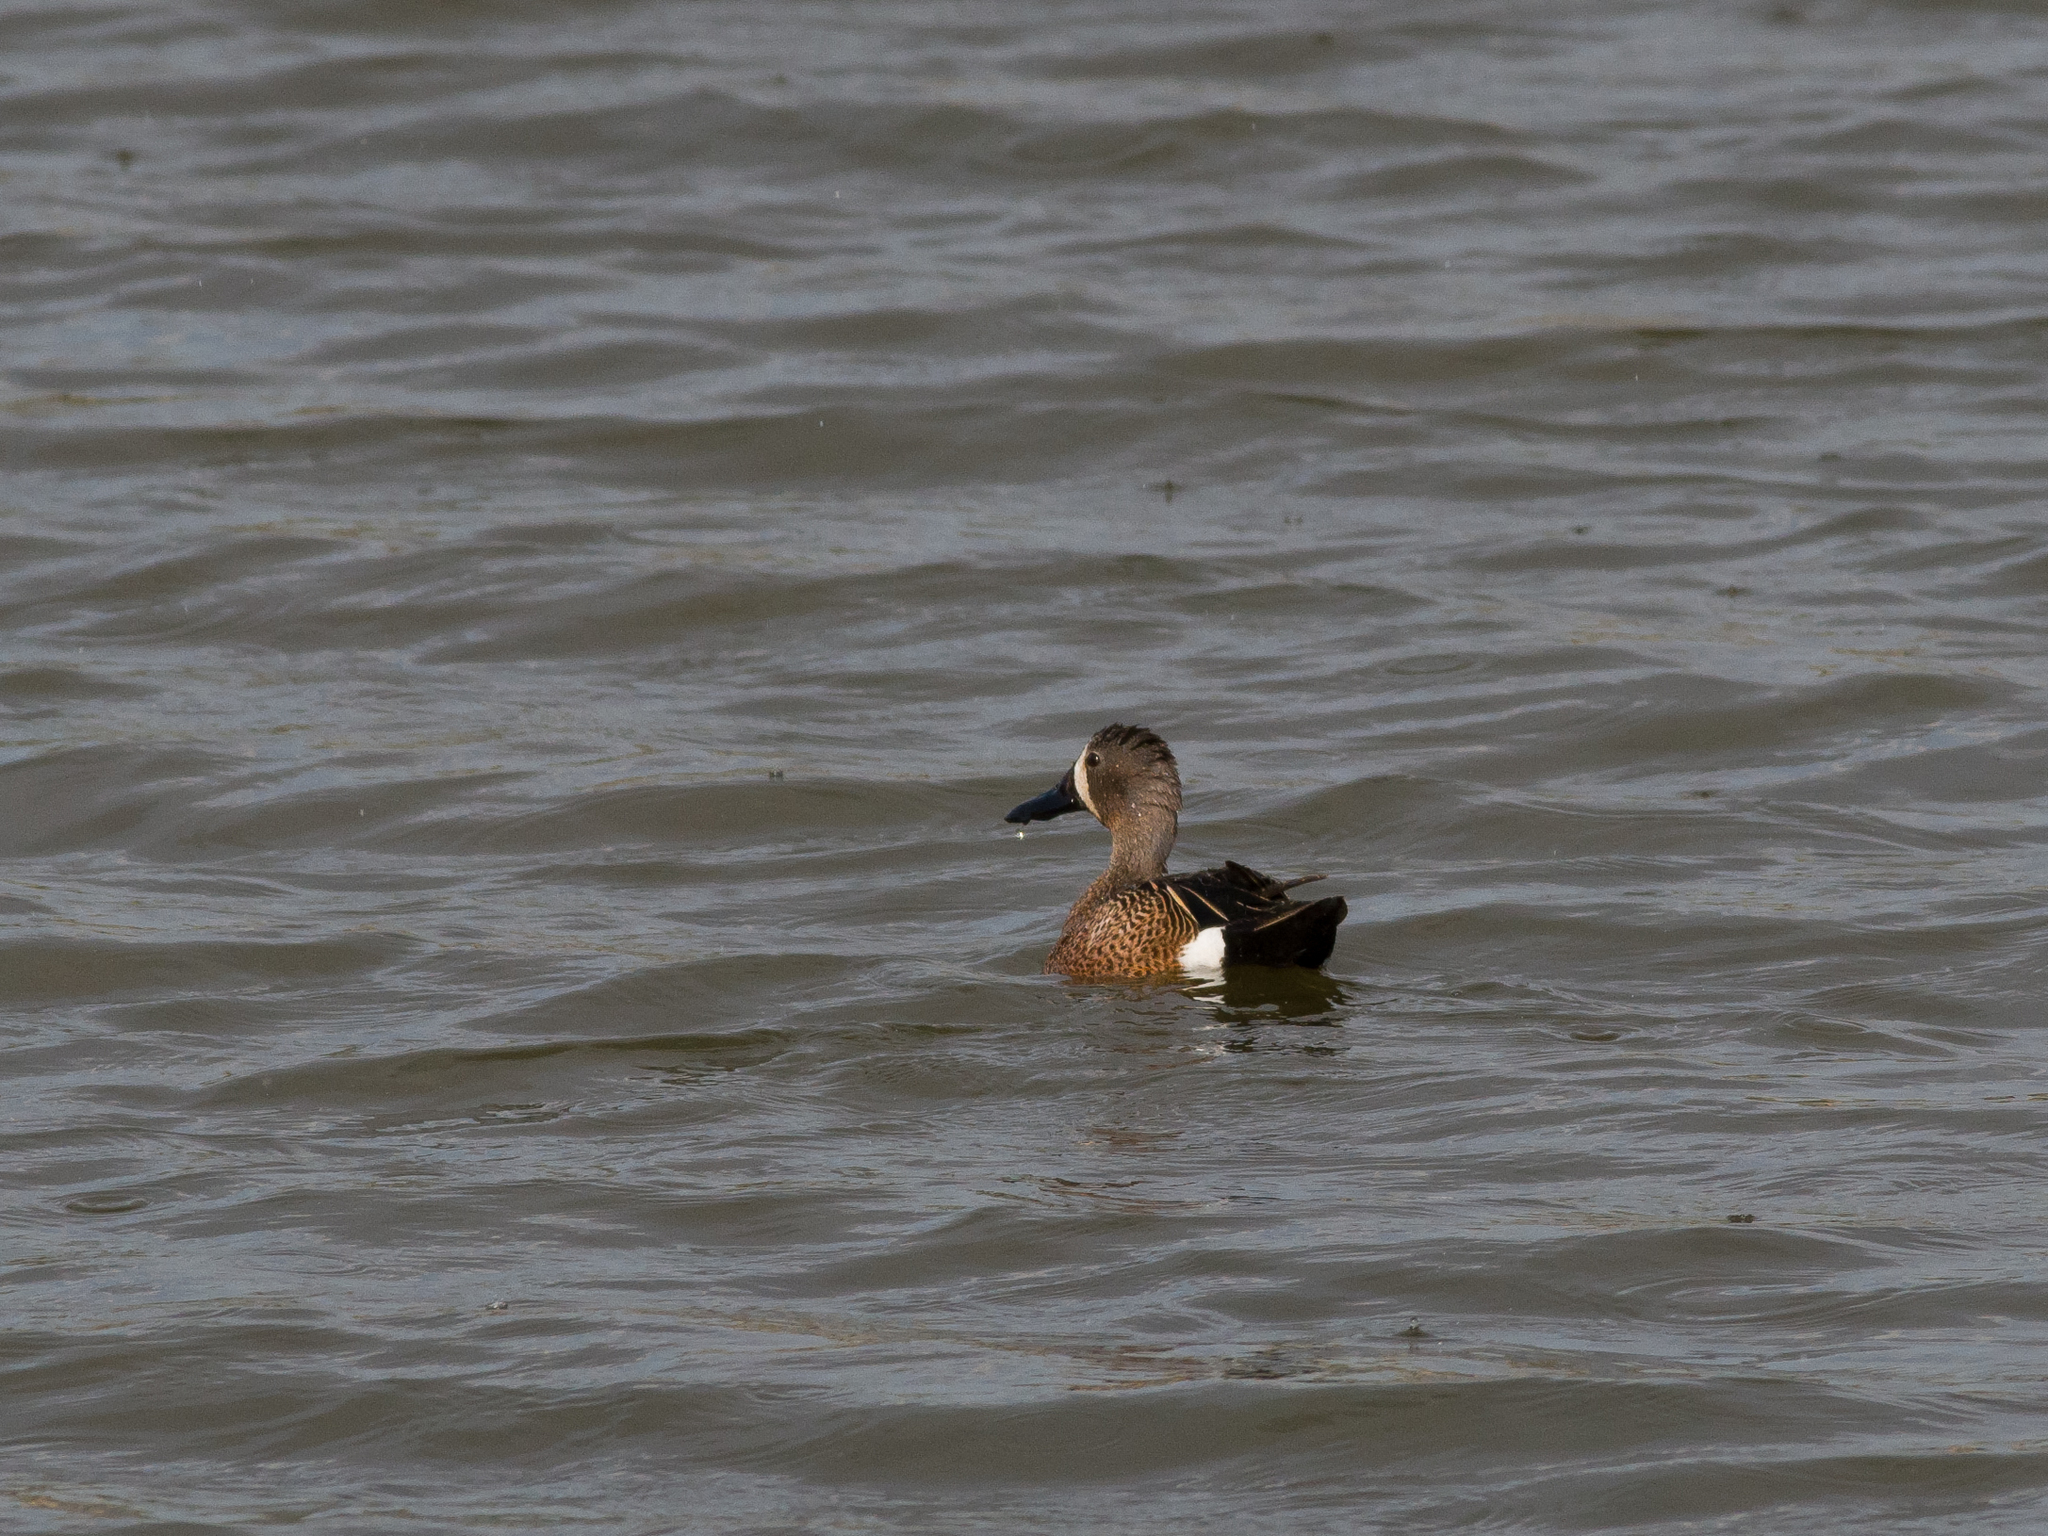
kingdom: Animalia
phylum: Chordata
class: Aves
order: Anseriformes
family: Anatidae
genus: Spatula
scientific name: Spatula discors
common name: Blue-winged teal
